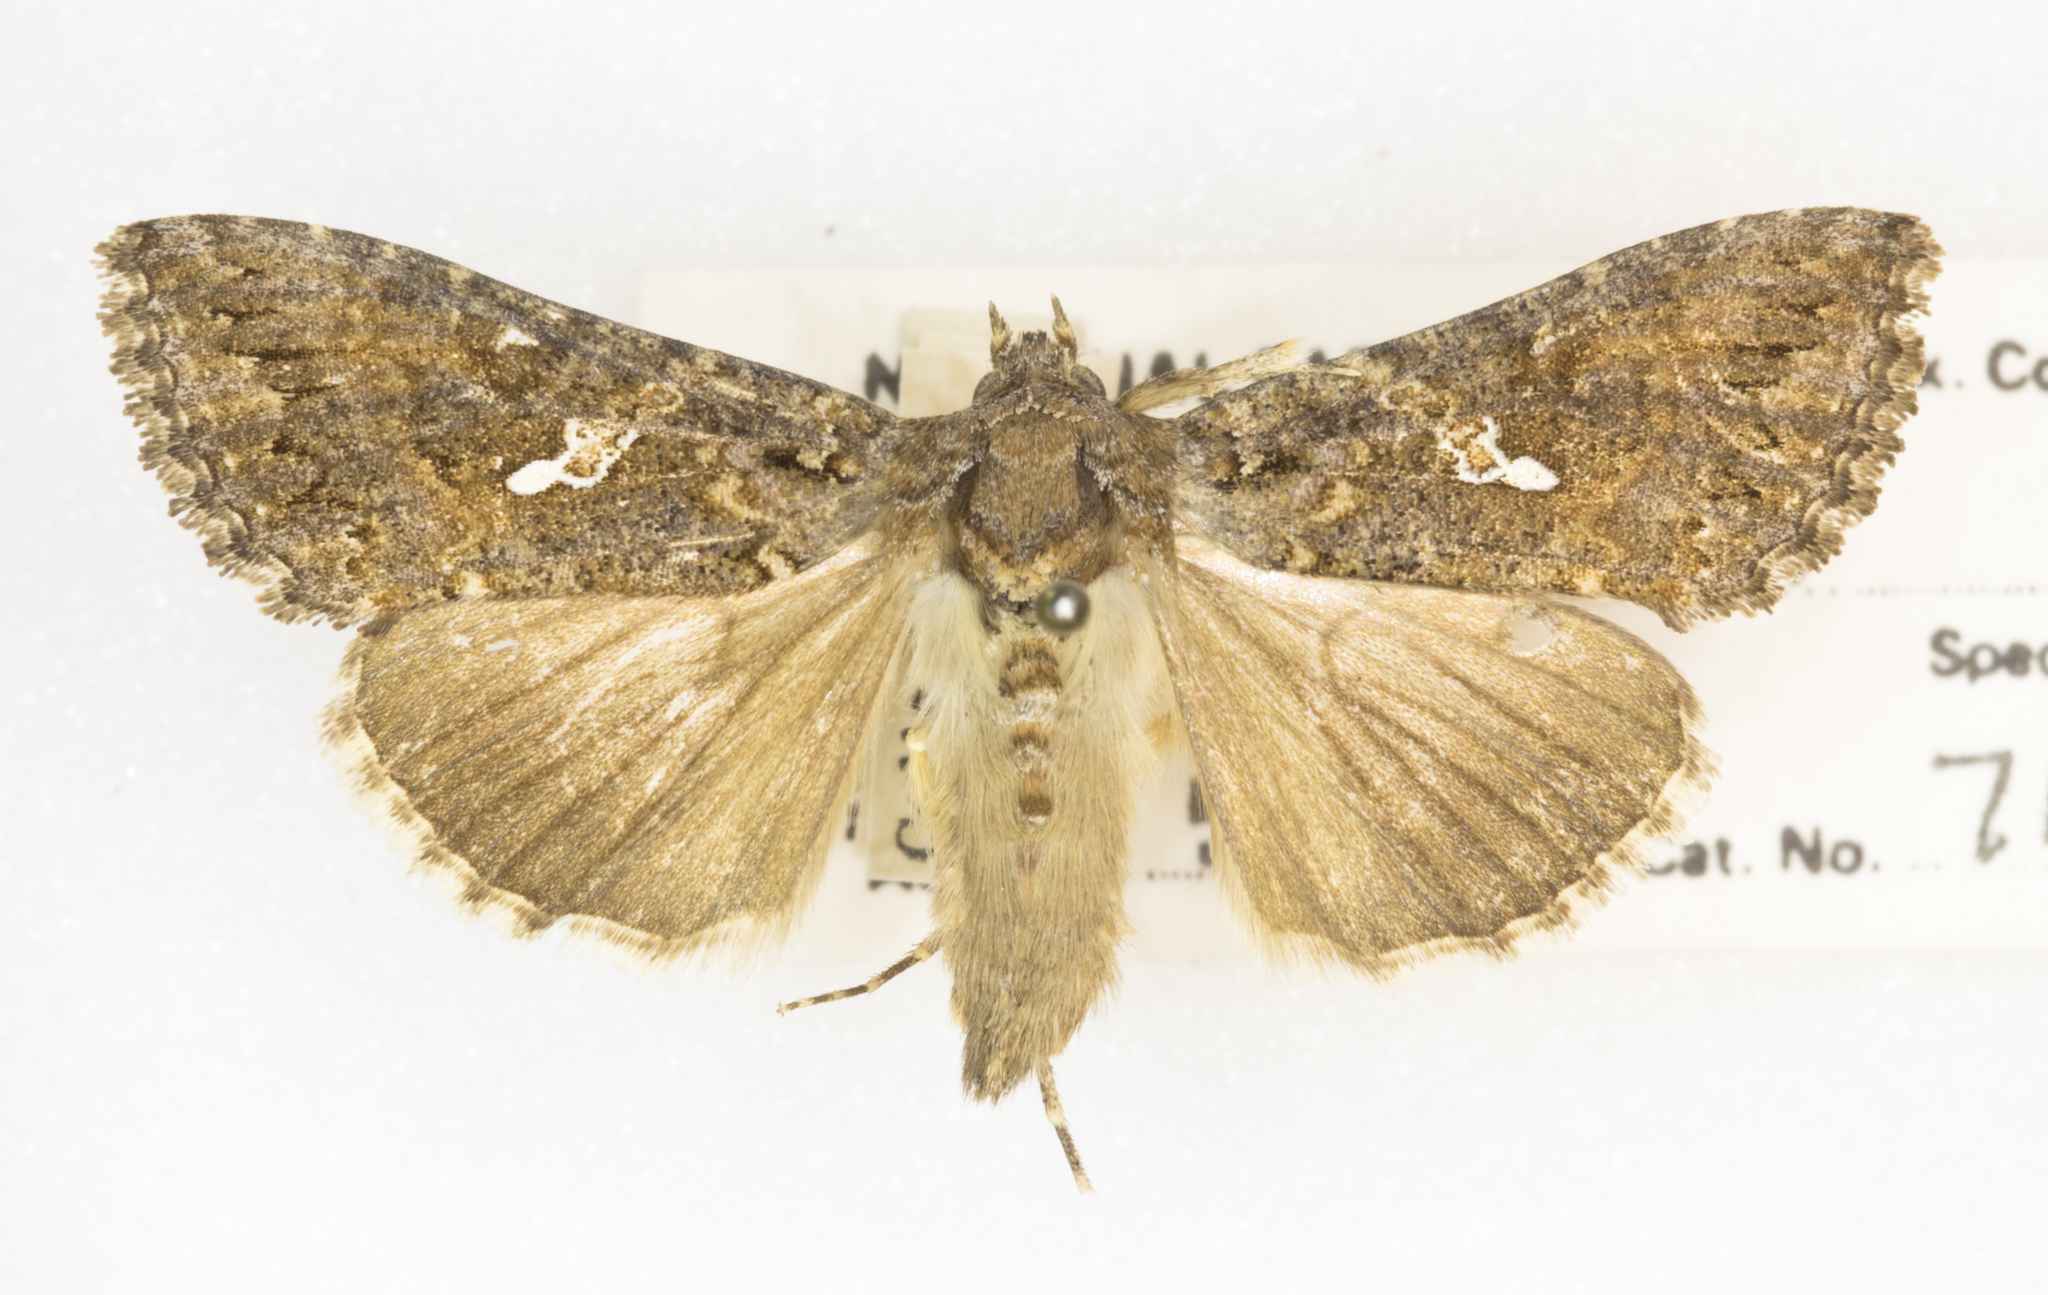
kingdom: Animalia
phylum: Arthropoda
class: Insecta
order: Lepidoptera
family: Noctuidae
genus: Trichoplusia
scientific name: Trichoplusia ni
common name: Ni moth
